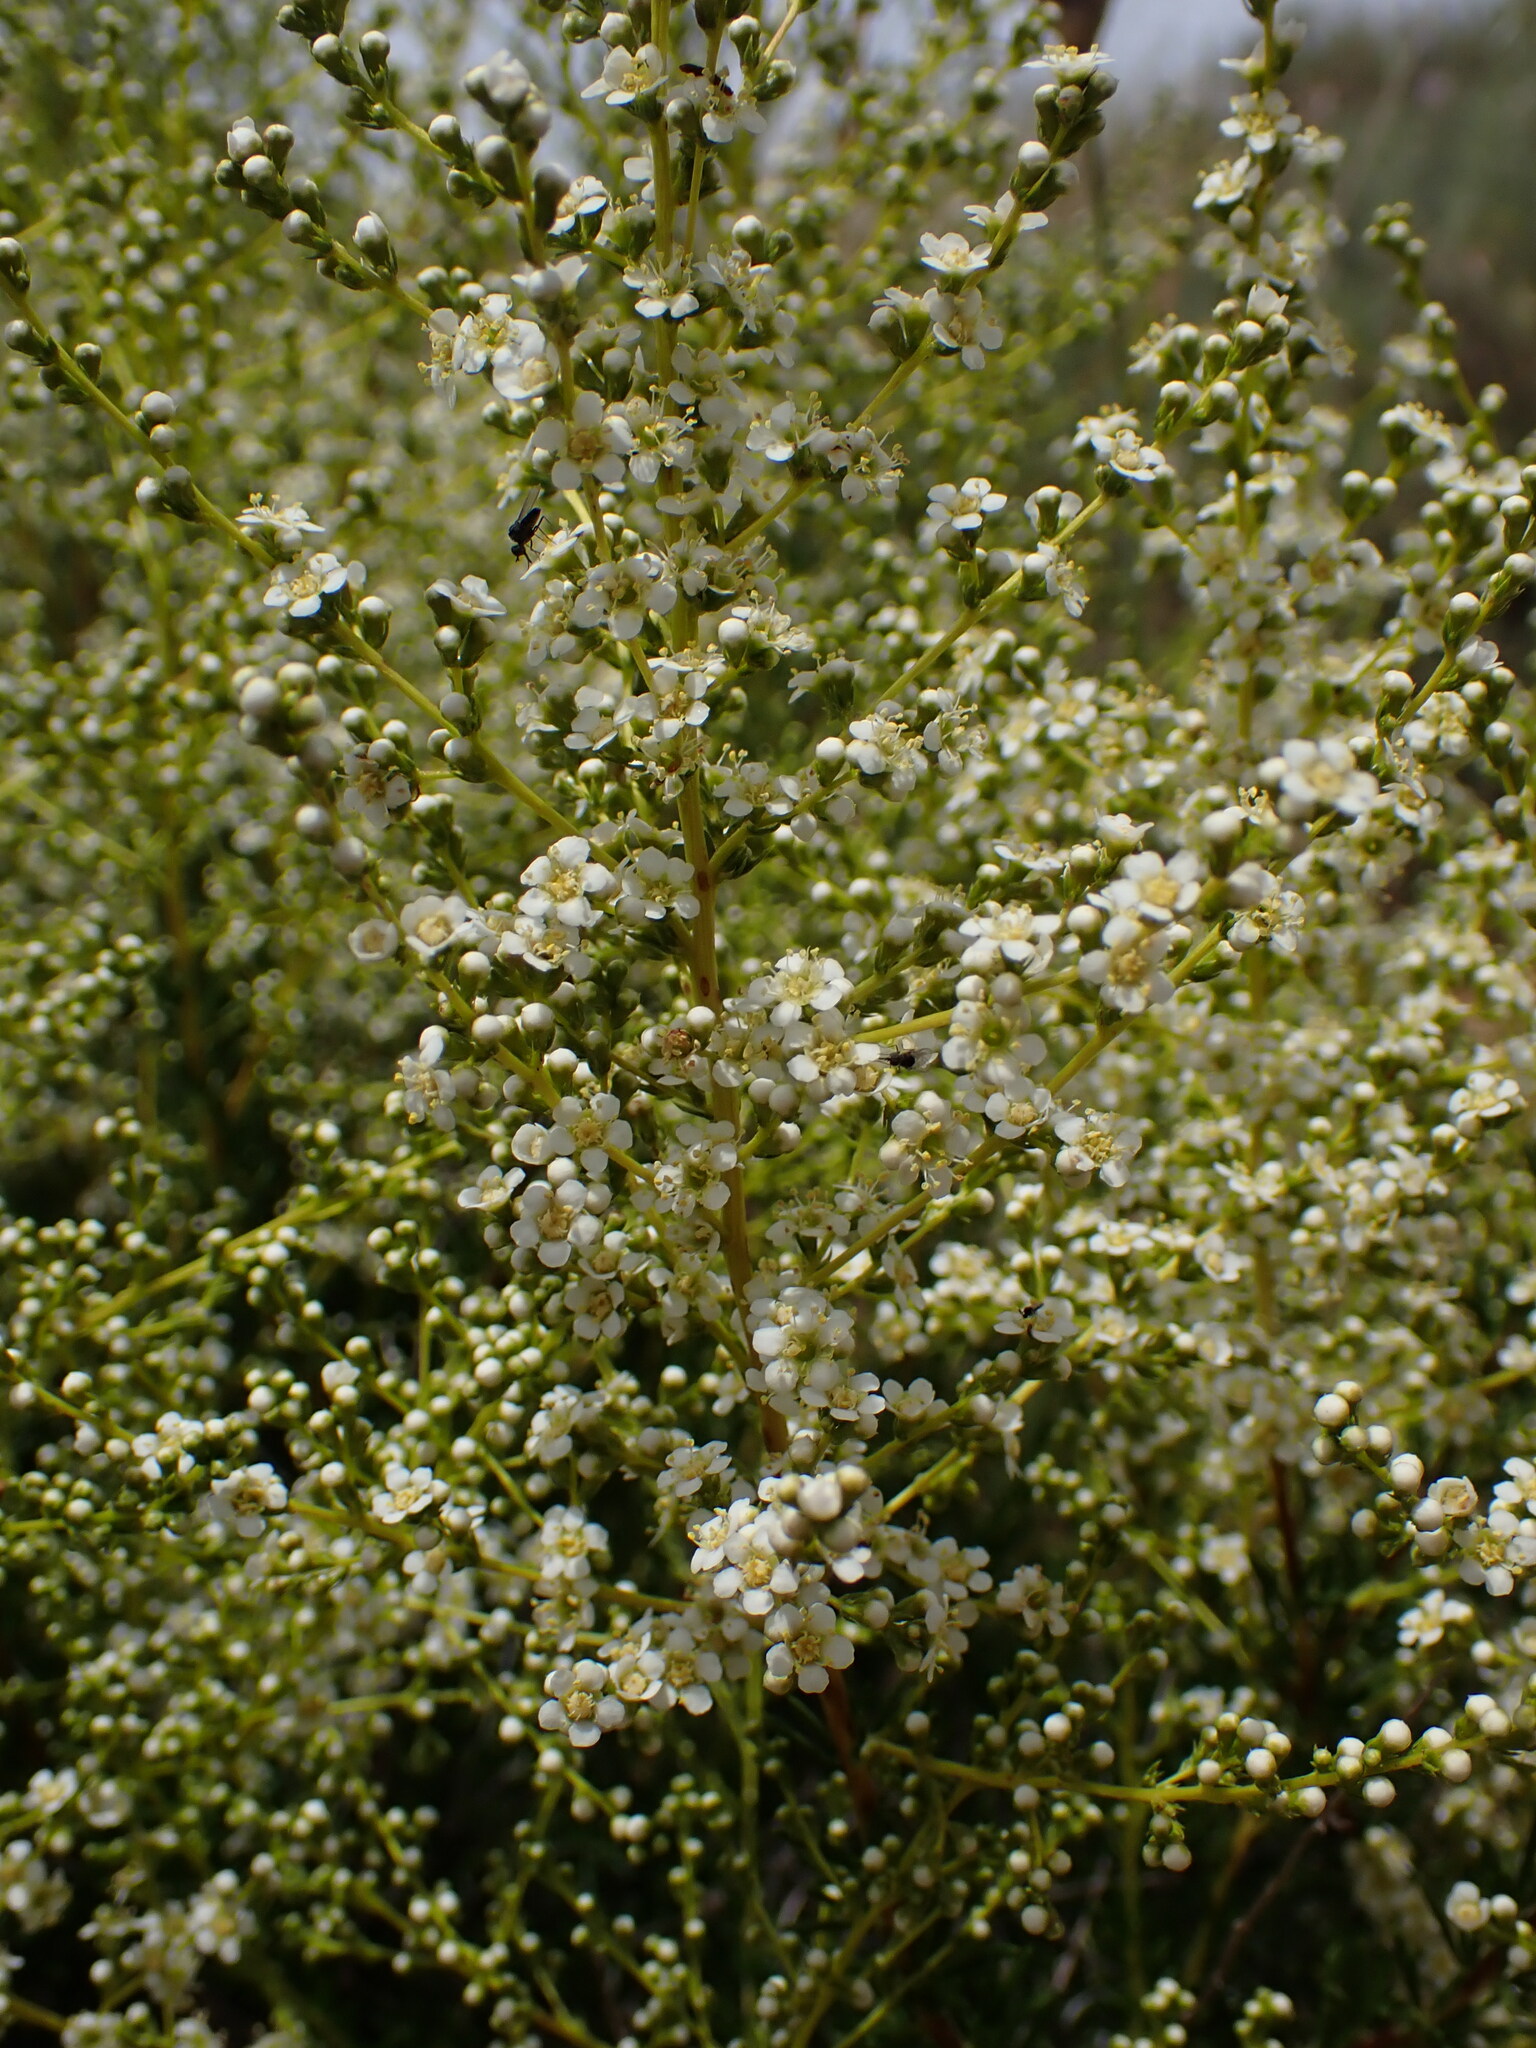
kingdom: Plantae
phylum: Tracheophyta
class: Magnoliopsida
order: Rosales
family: Rosaceae
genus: Adenostoma
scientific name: Adenostoma fasciculatum
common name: Chamise
